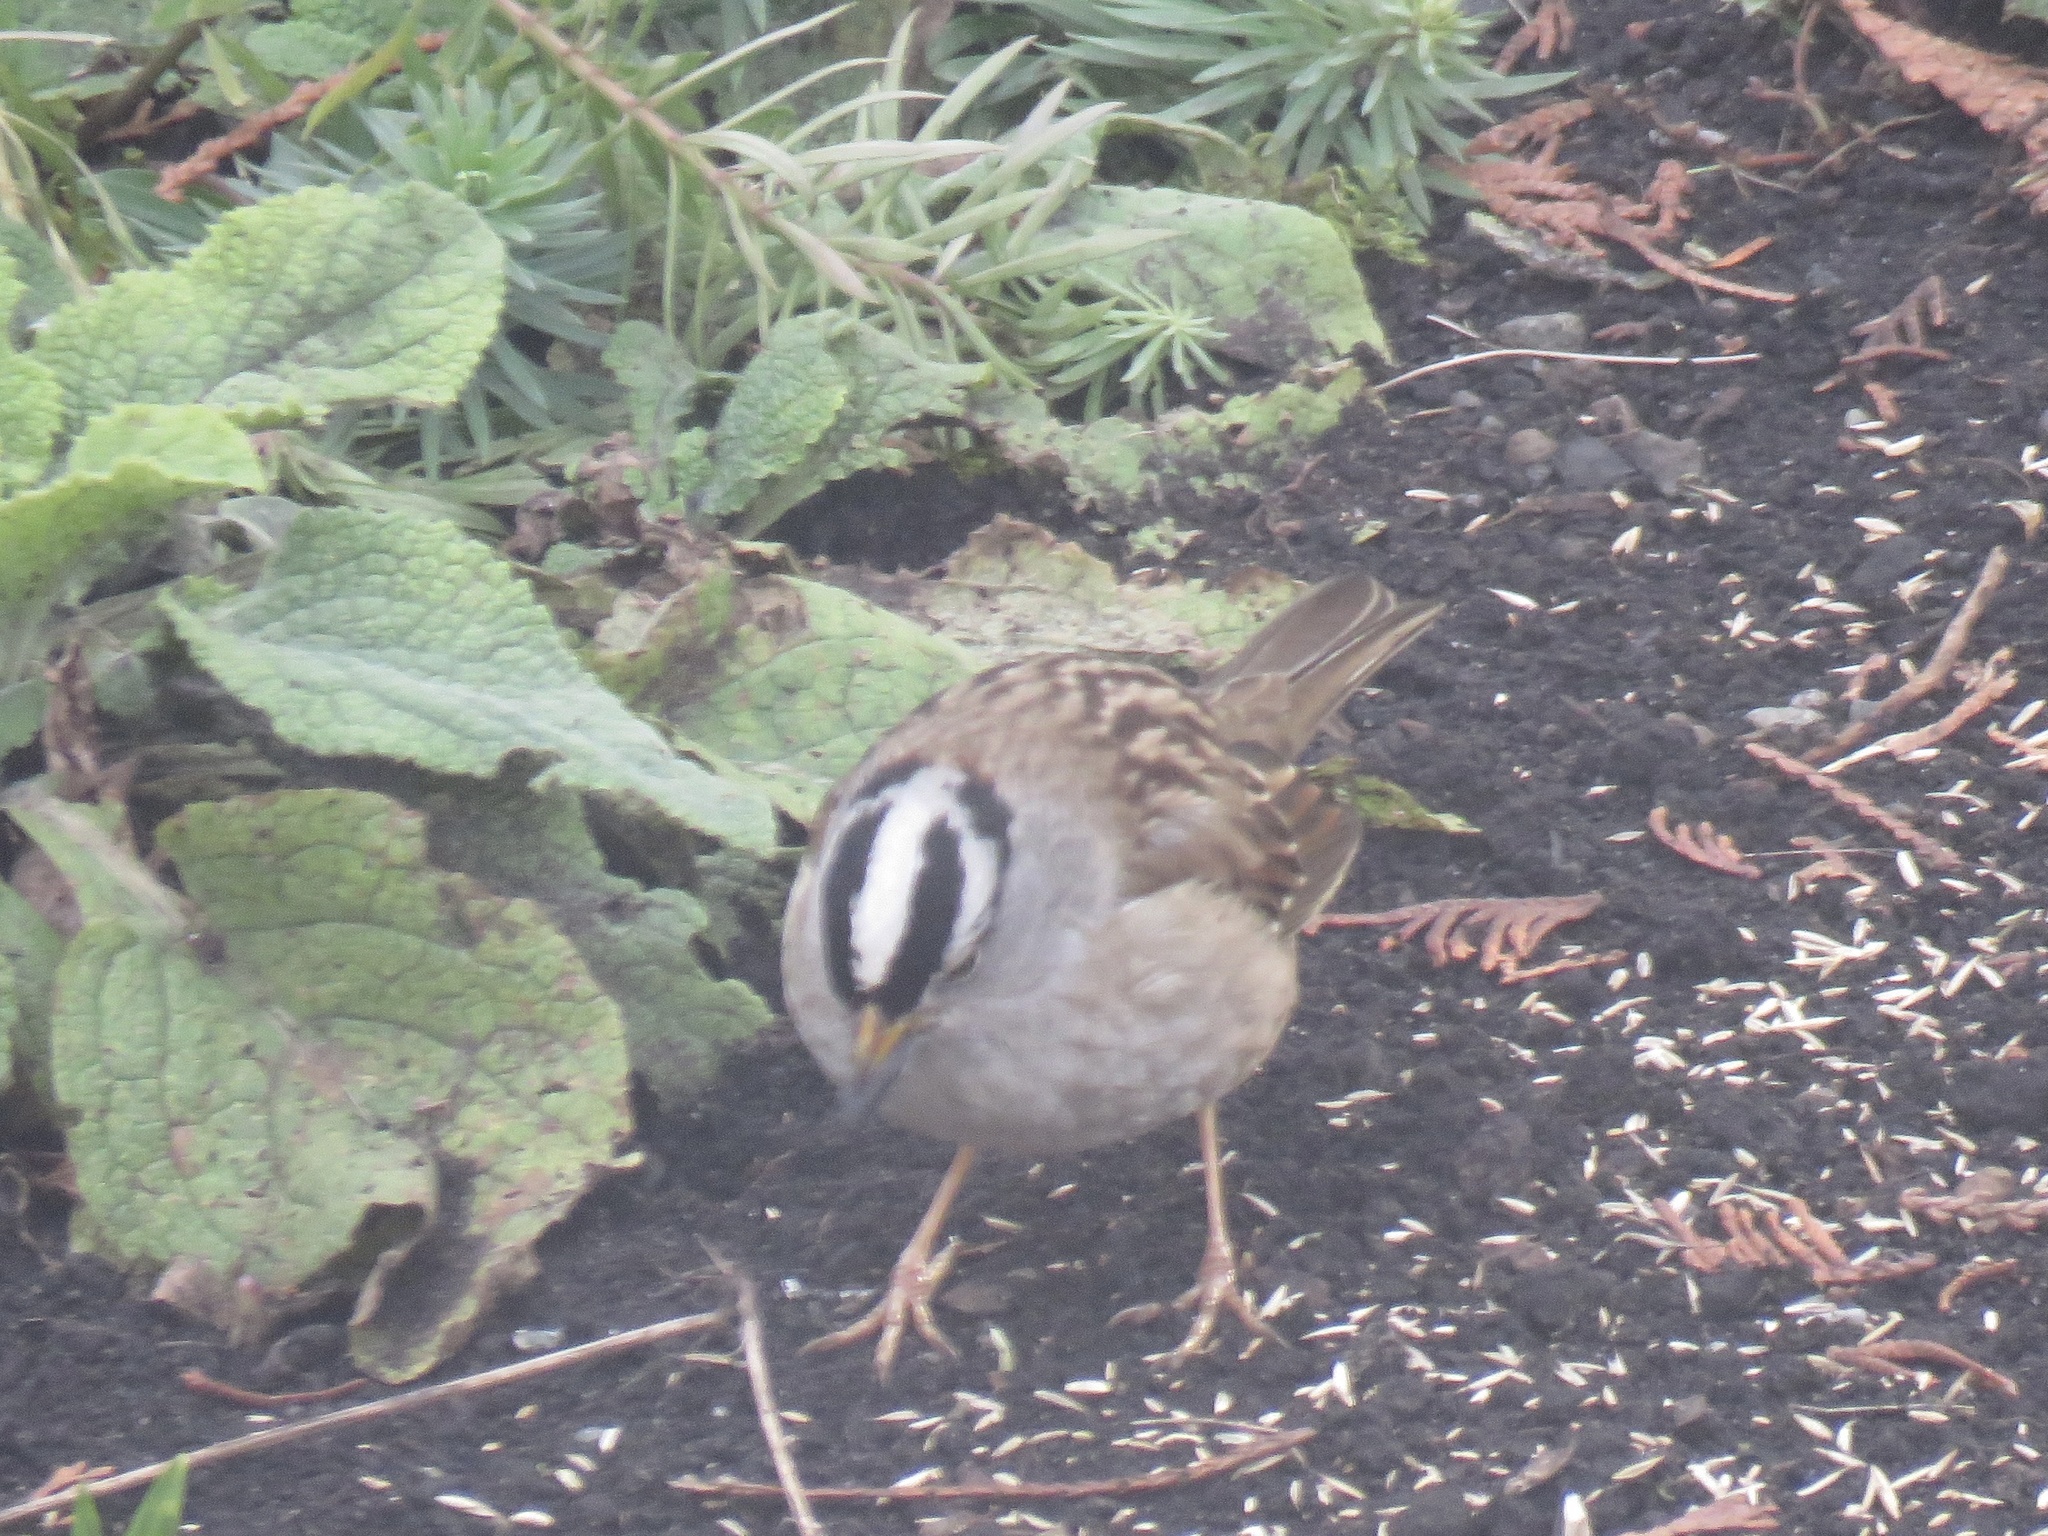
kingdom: Animalia
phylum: Chordata
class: Aves
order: Passeriformes
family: Passerellidae
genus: Zonotrichia
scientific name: Zonotrichia leucophrys
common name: White-crowned sparrow
